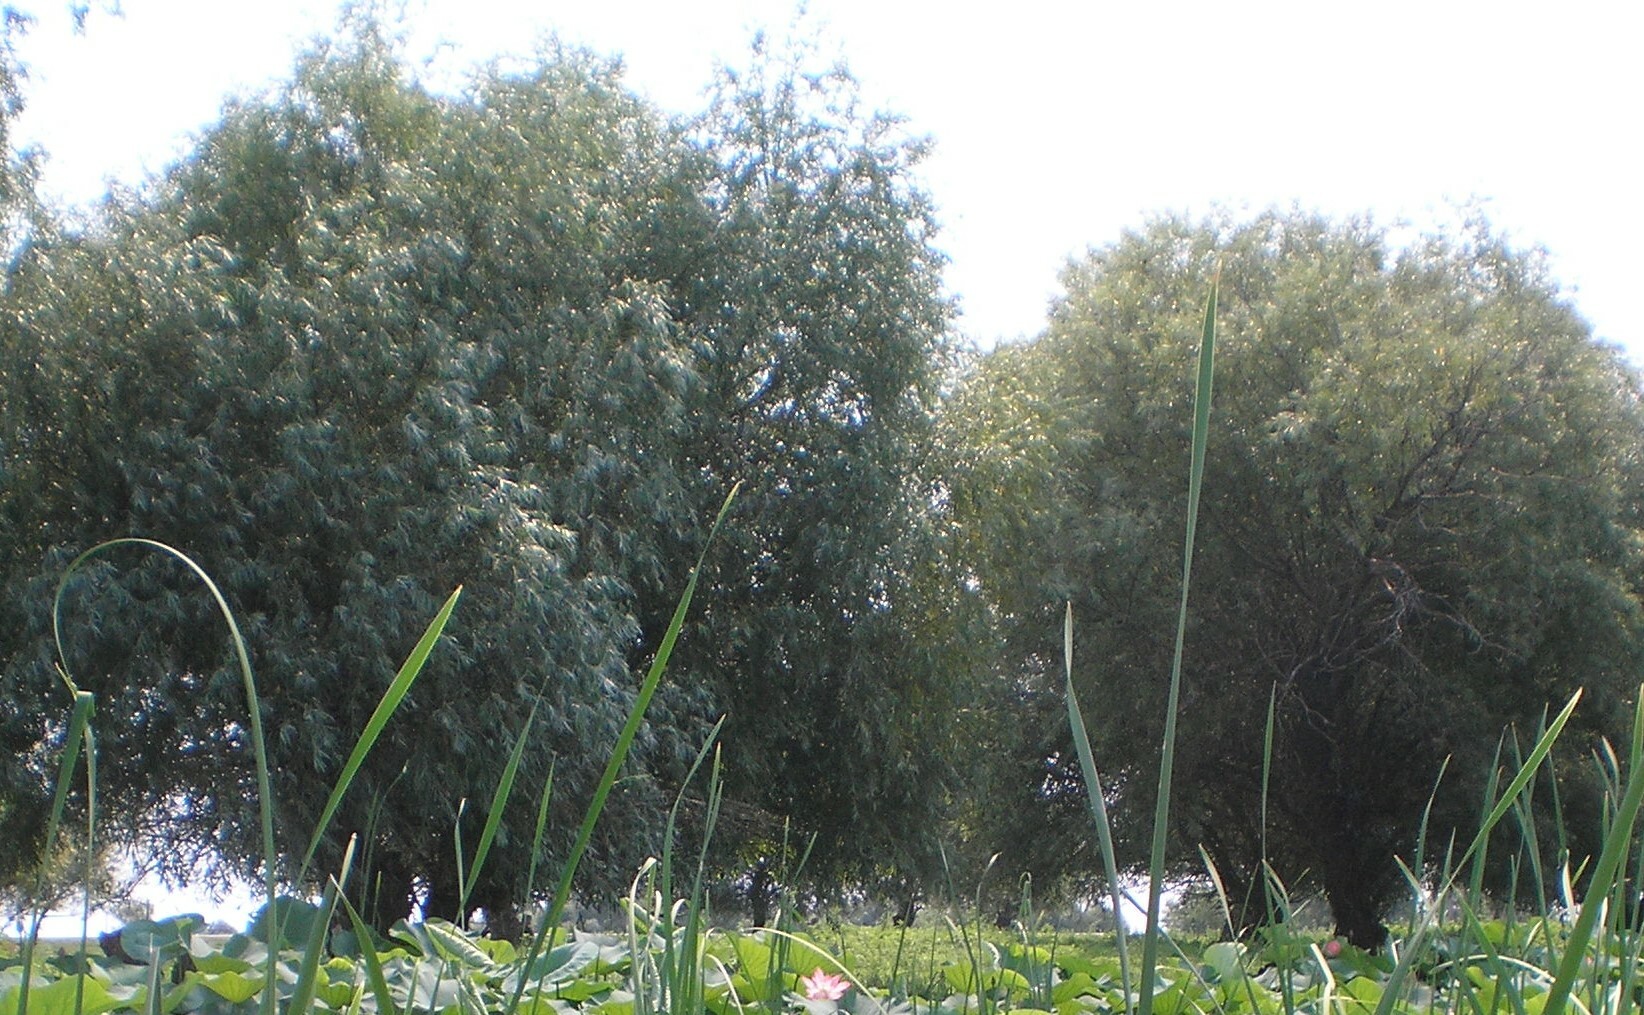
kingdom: Plantae
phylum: Tracheophyta
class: Magnoliopsida
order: Malpighiales
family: Salicaceae
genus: Salix
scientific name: Salix alba
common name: White willow
